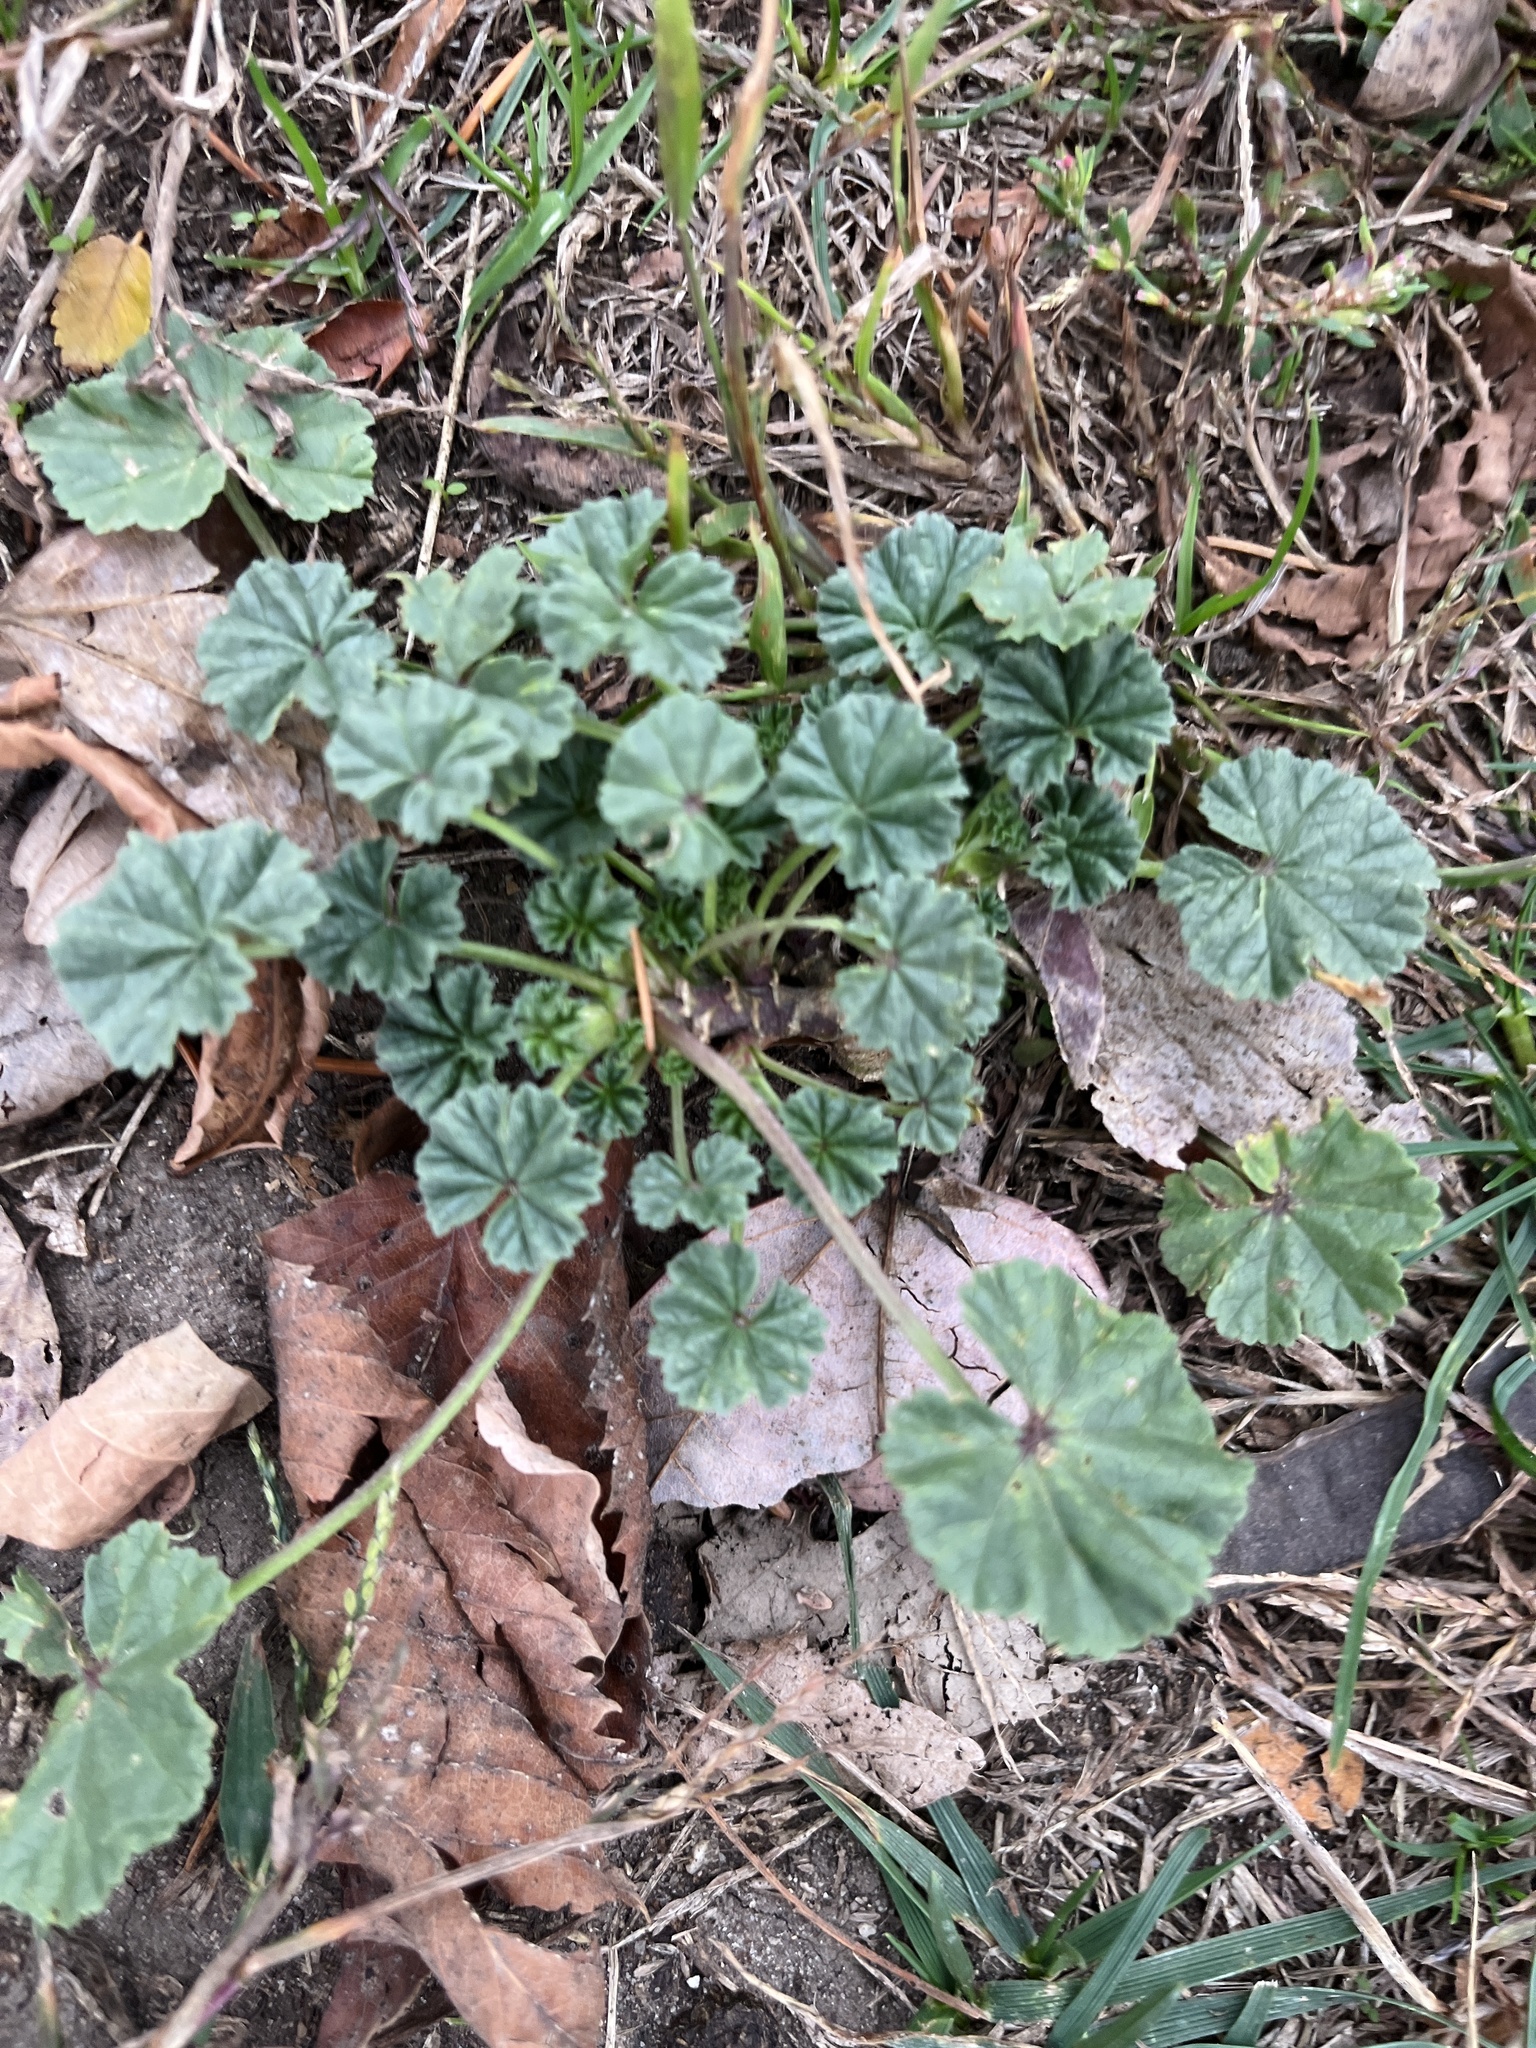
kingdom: Plantae
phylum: Tracheophyta
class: Magnoliopsida
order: Malvales
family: Malvaceae
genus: Malva
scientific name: Malva neglecta
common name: Common mallow
